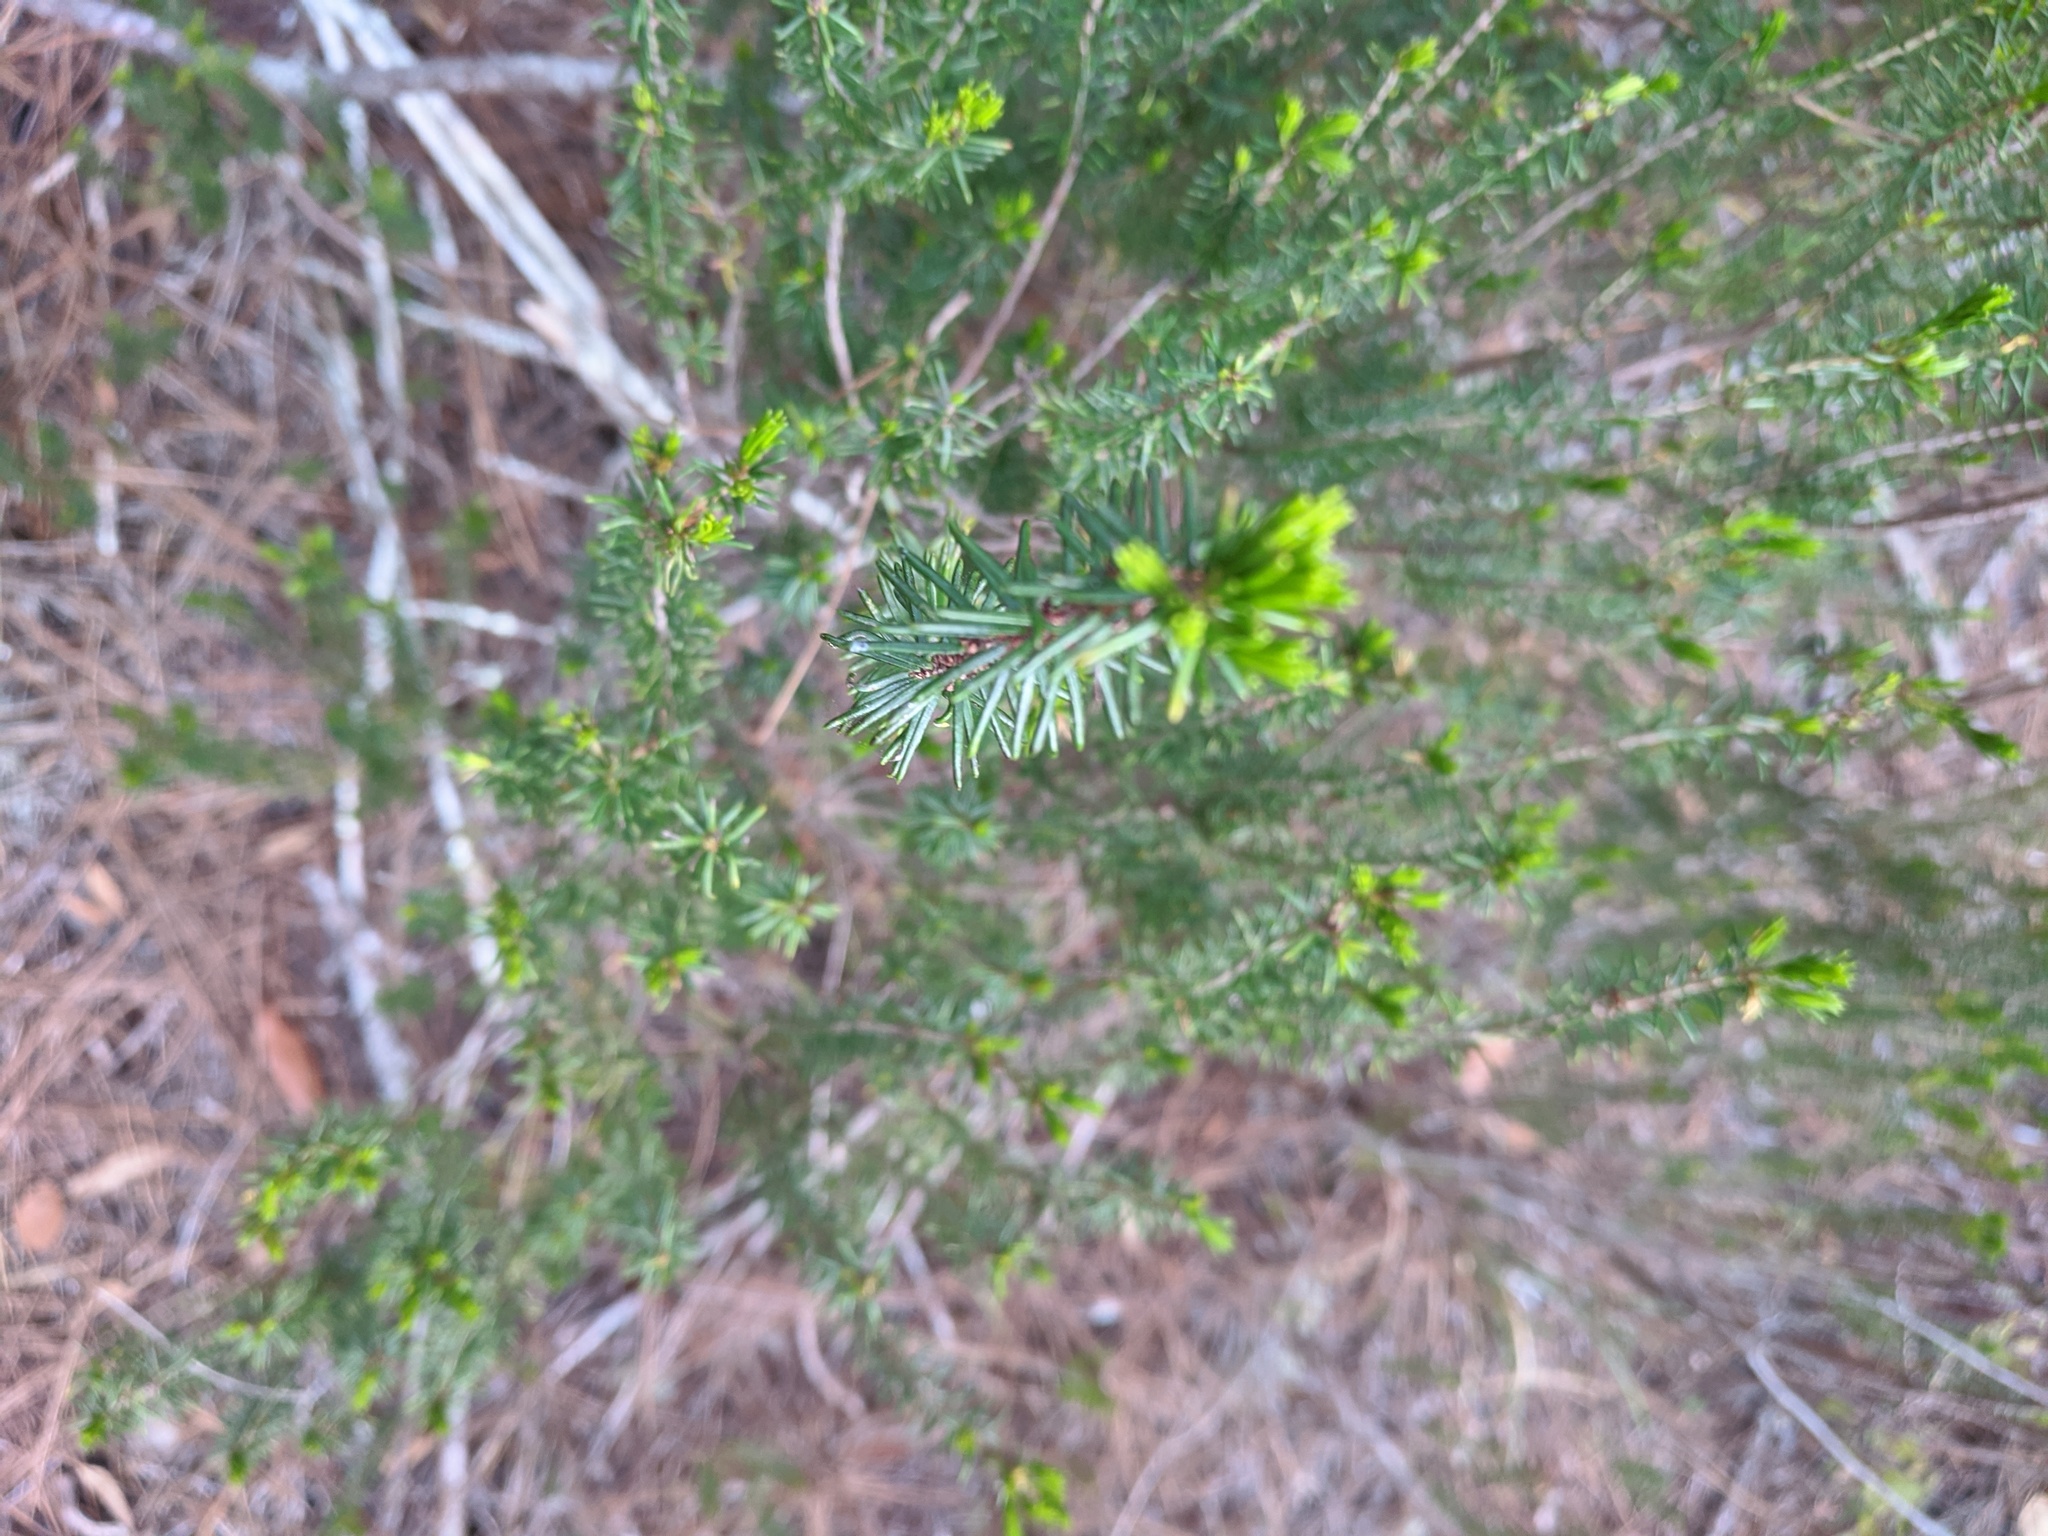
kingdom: Plantae
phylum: Tracheophyta
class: Magnoliopsida
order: Ericales
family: Ericaceae
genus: Ceratiola
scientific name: Ceratiola ericoides
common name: Sandhill-rosemary
